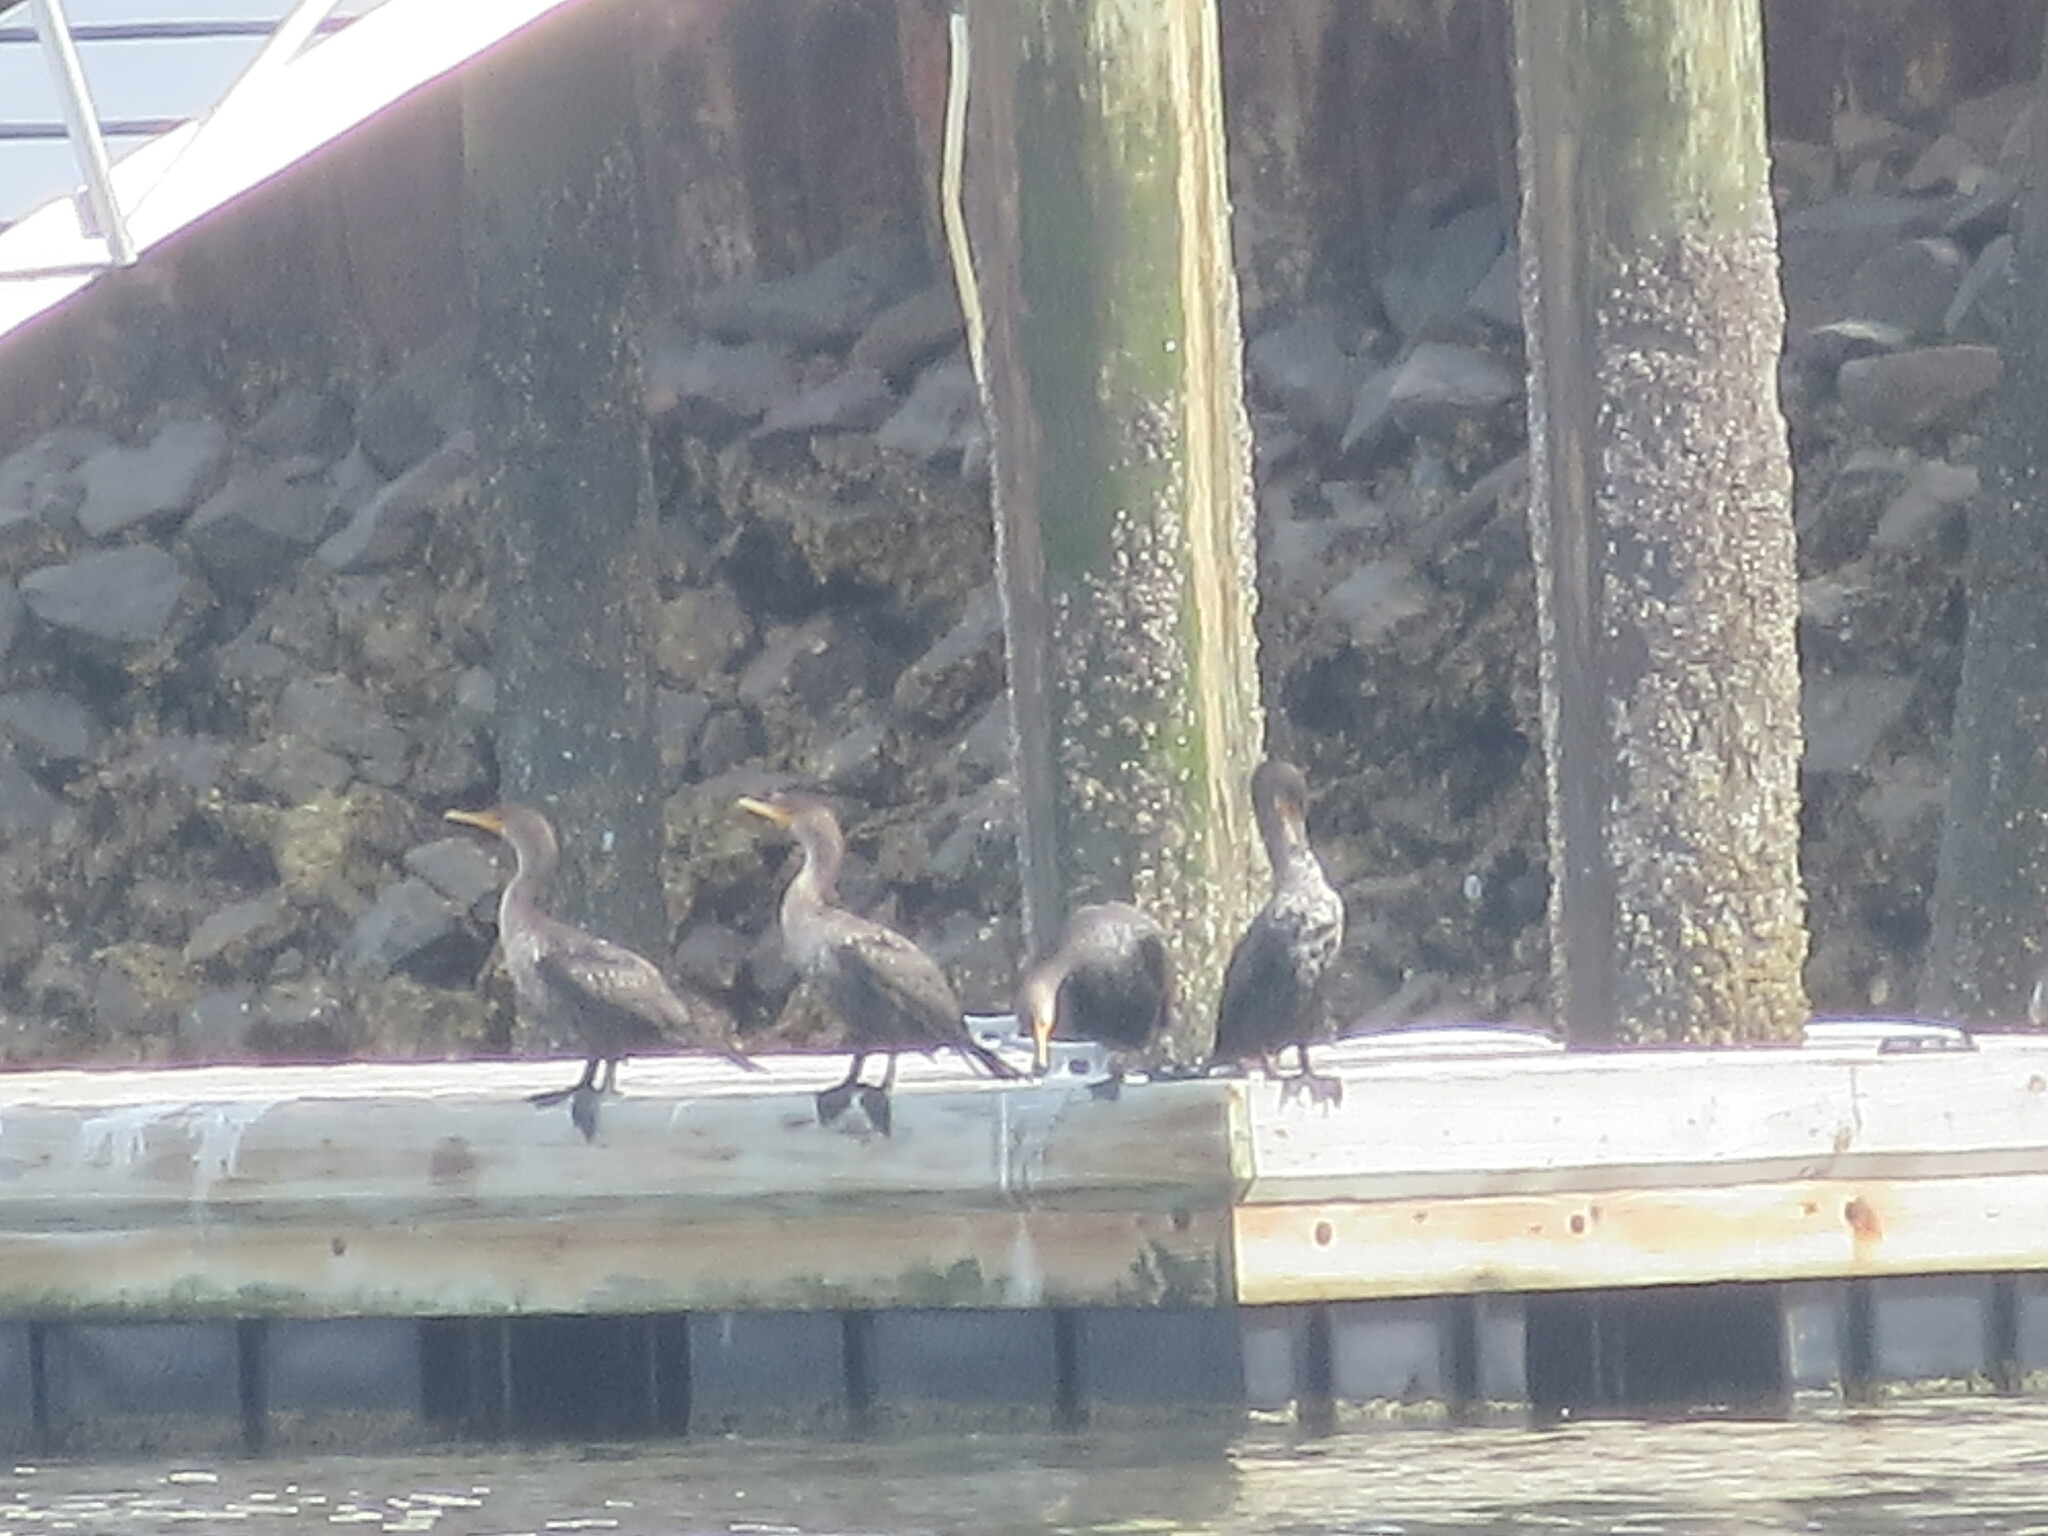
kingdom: Animalia
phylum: Chordata
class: Aves
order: Suliformes
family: Phalacrocoracidae
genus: Phalacrocorax
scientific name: Phalacrocorax auritus
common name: Double-crested cormorant
